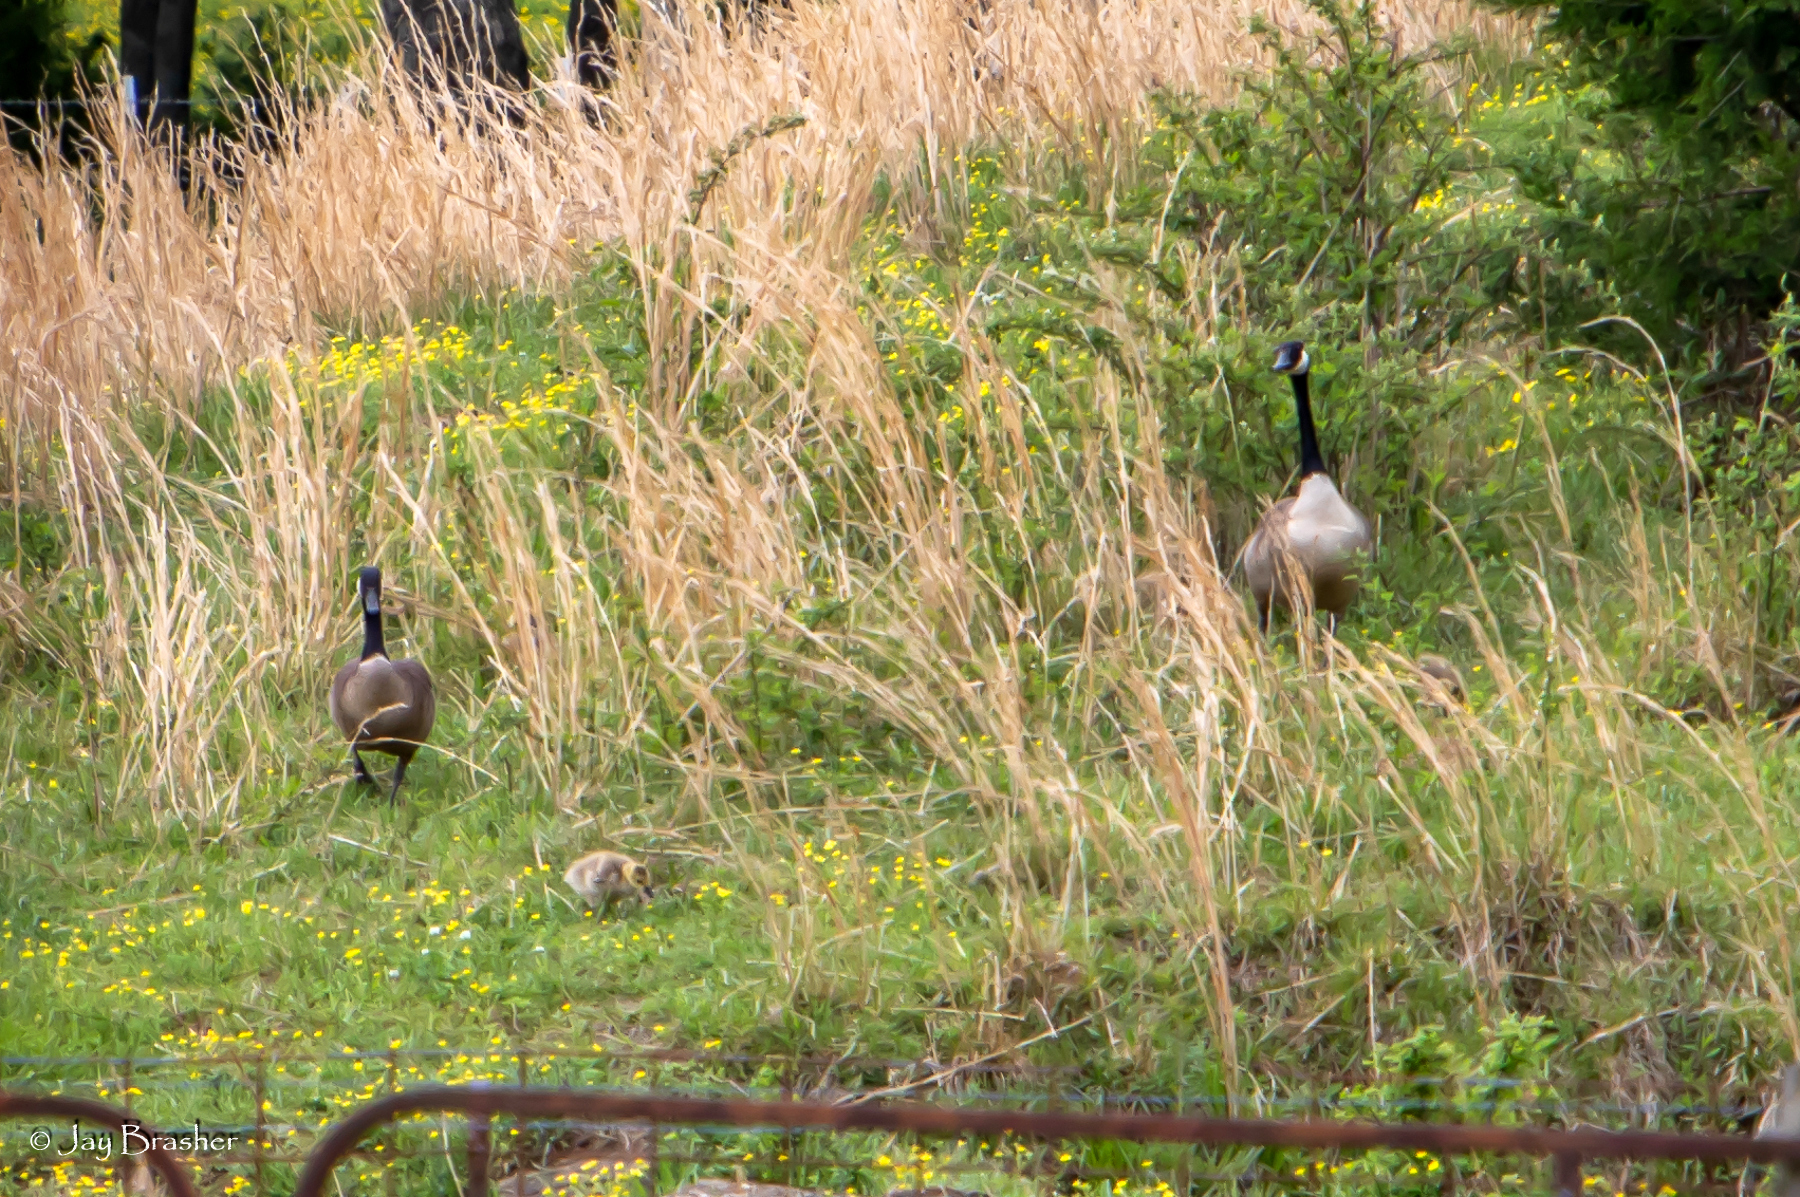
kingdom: Animalia
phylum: Chordata
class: Aves
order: Anseriformes
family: Anatidae
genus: Branta
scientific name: Branta canadensis
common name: Canada goose
